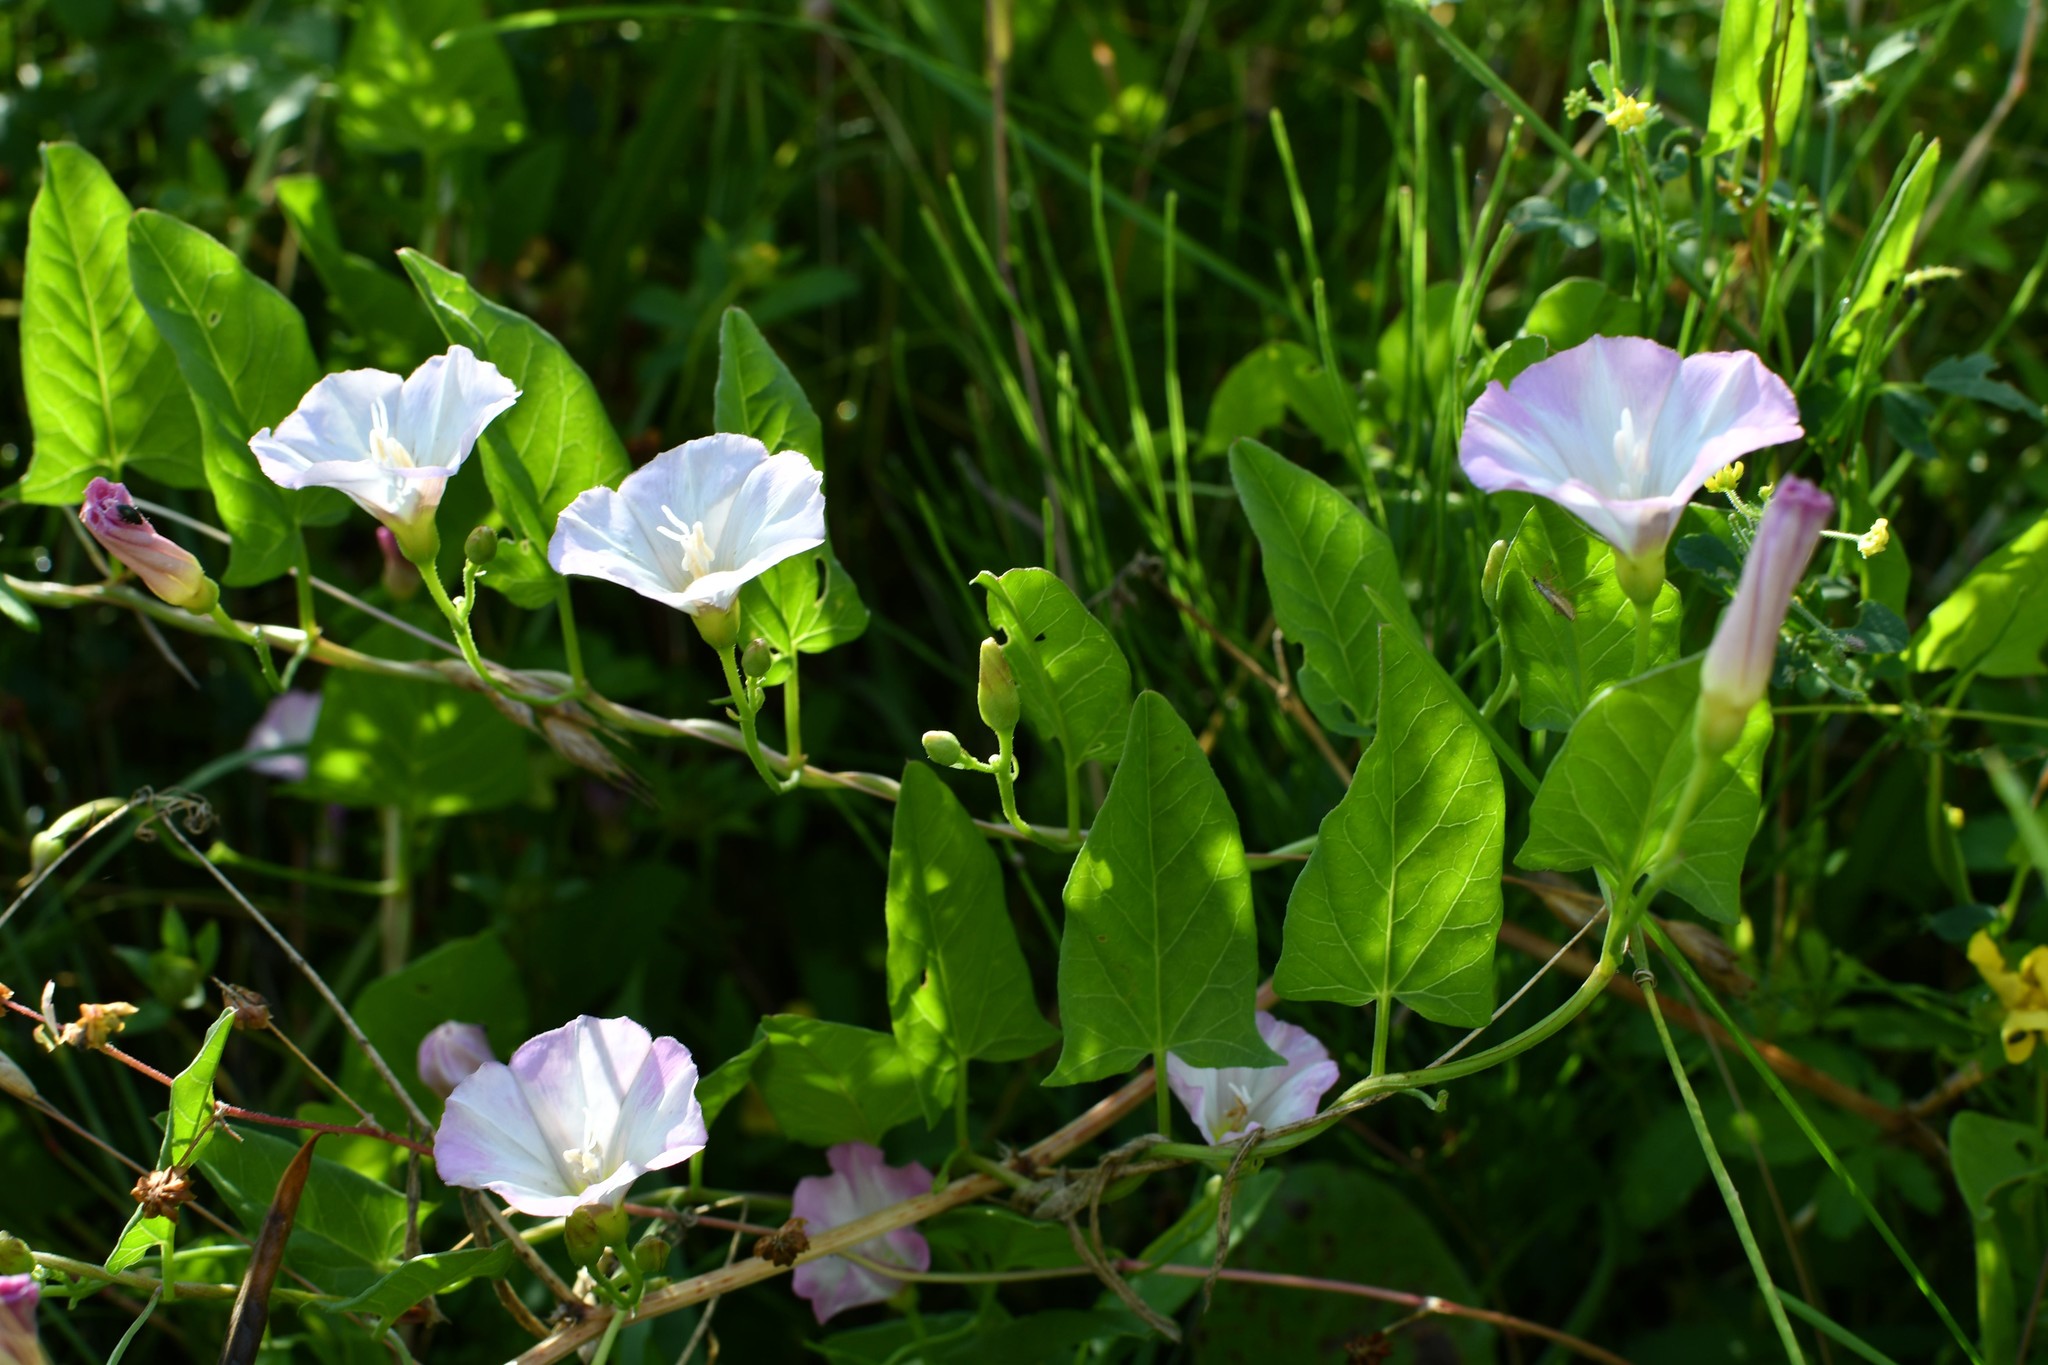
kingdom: Plantae
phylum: Tracheophyta
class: Magnoliopsida
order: Solanales
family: Convolvulaceae
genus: Convolvulus
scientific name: Convolvulus arvensis
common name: Field bindweed
